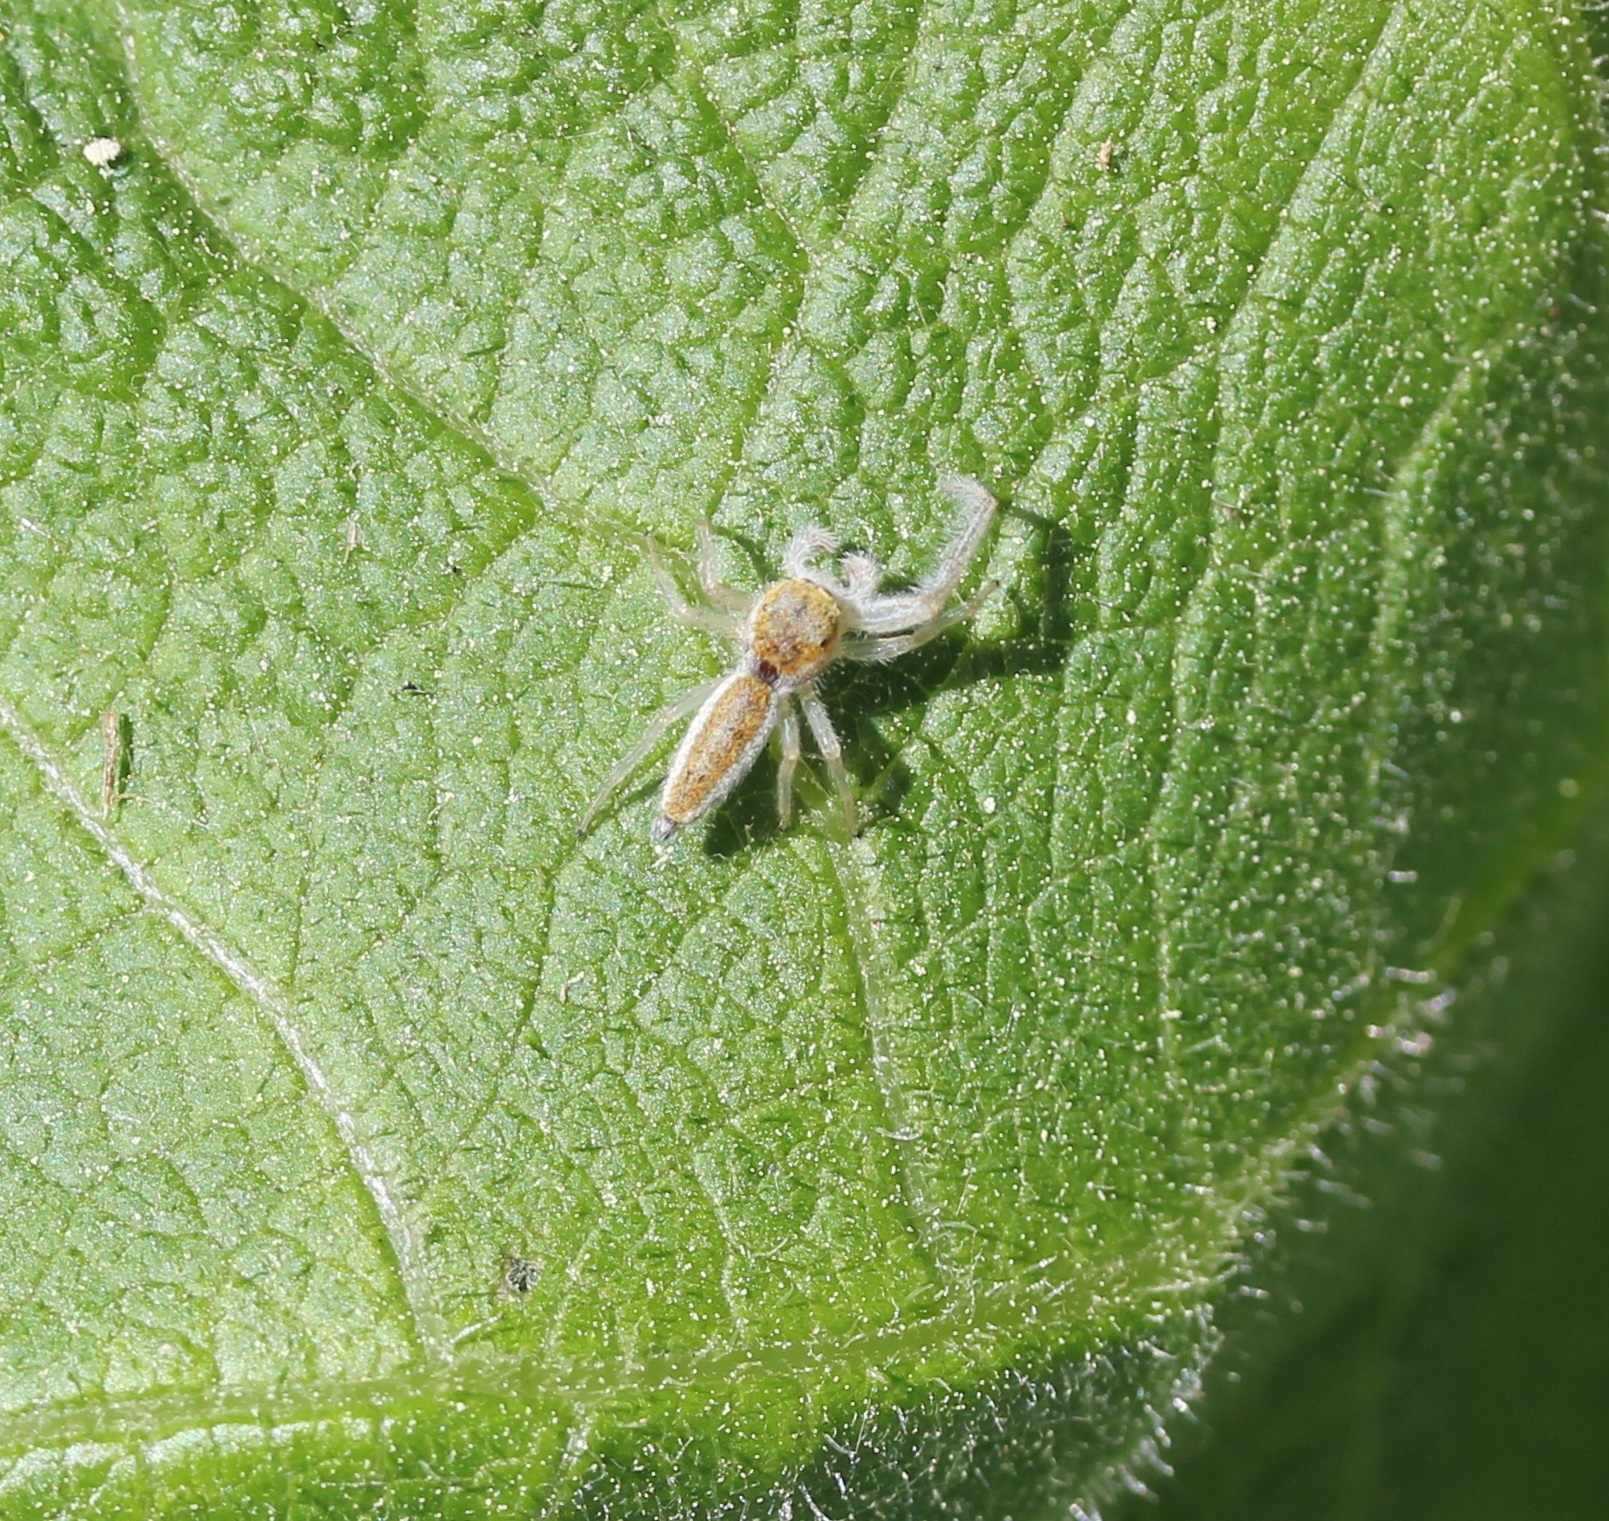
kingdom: Animalia
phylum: Arthropoda
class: Arachnida
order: Araneae
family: Salticidae
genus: Hentzia
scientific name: Hentzia mitrata
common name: White-jawed jumping spider
